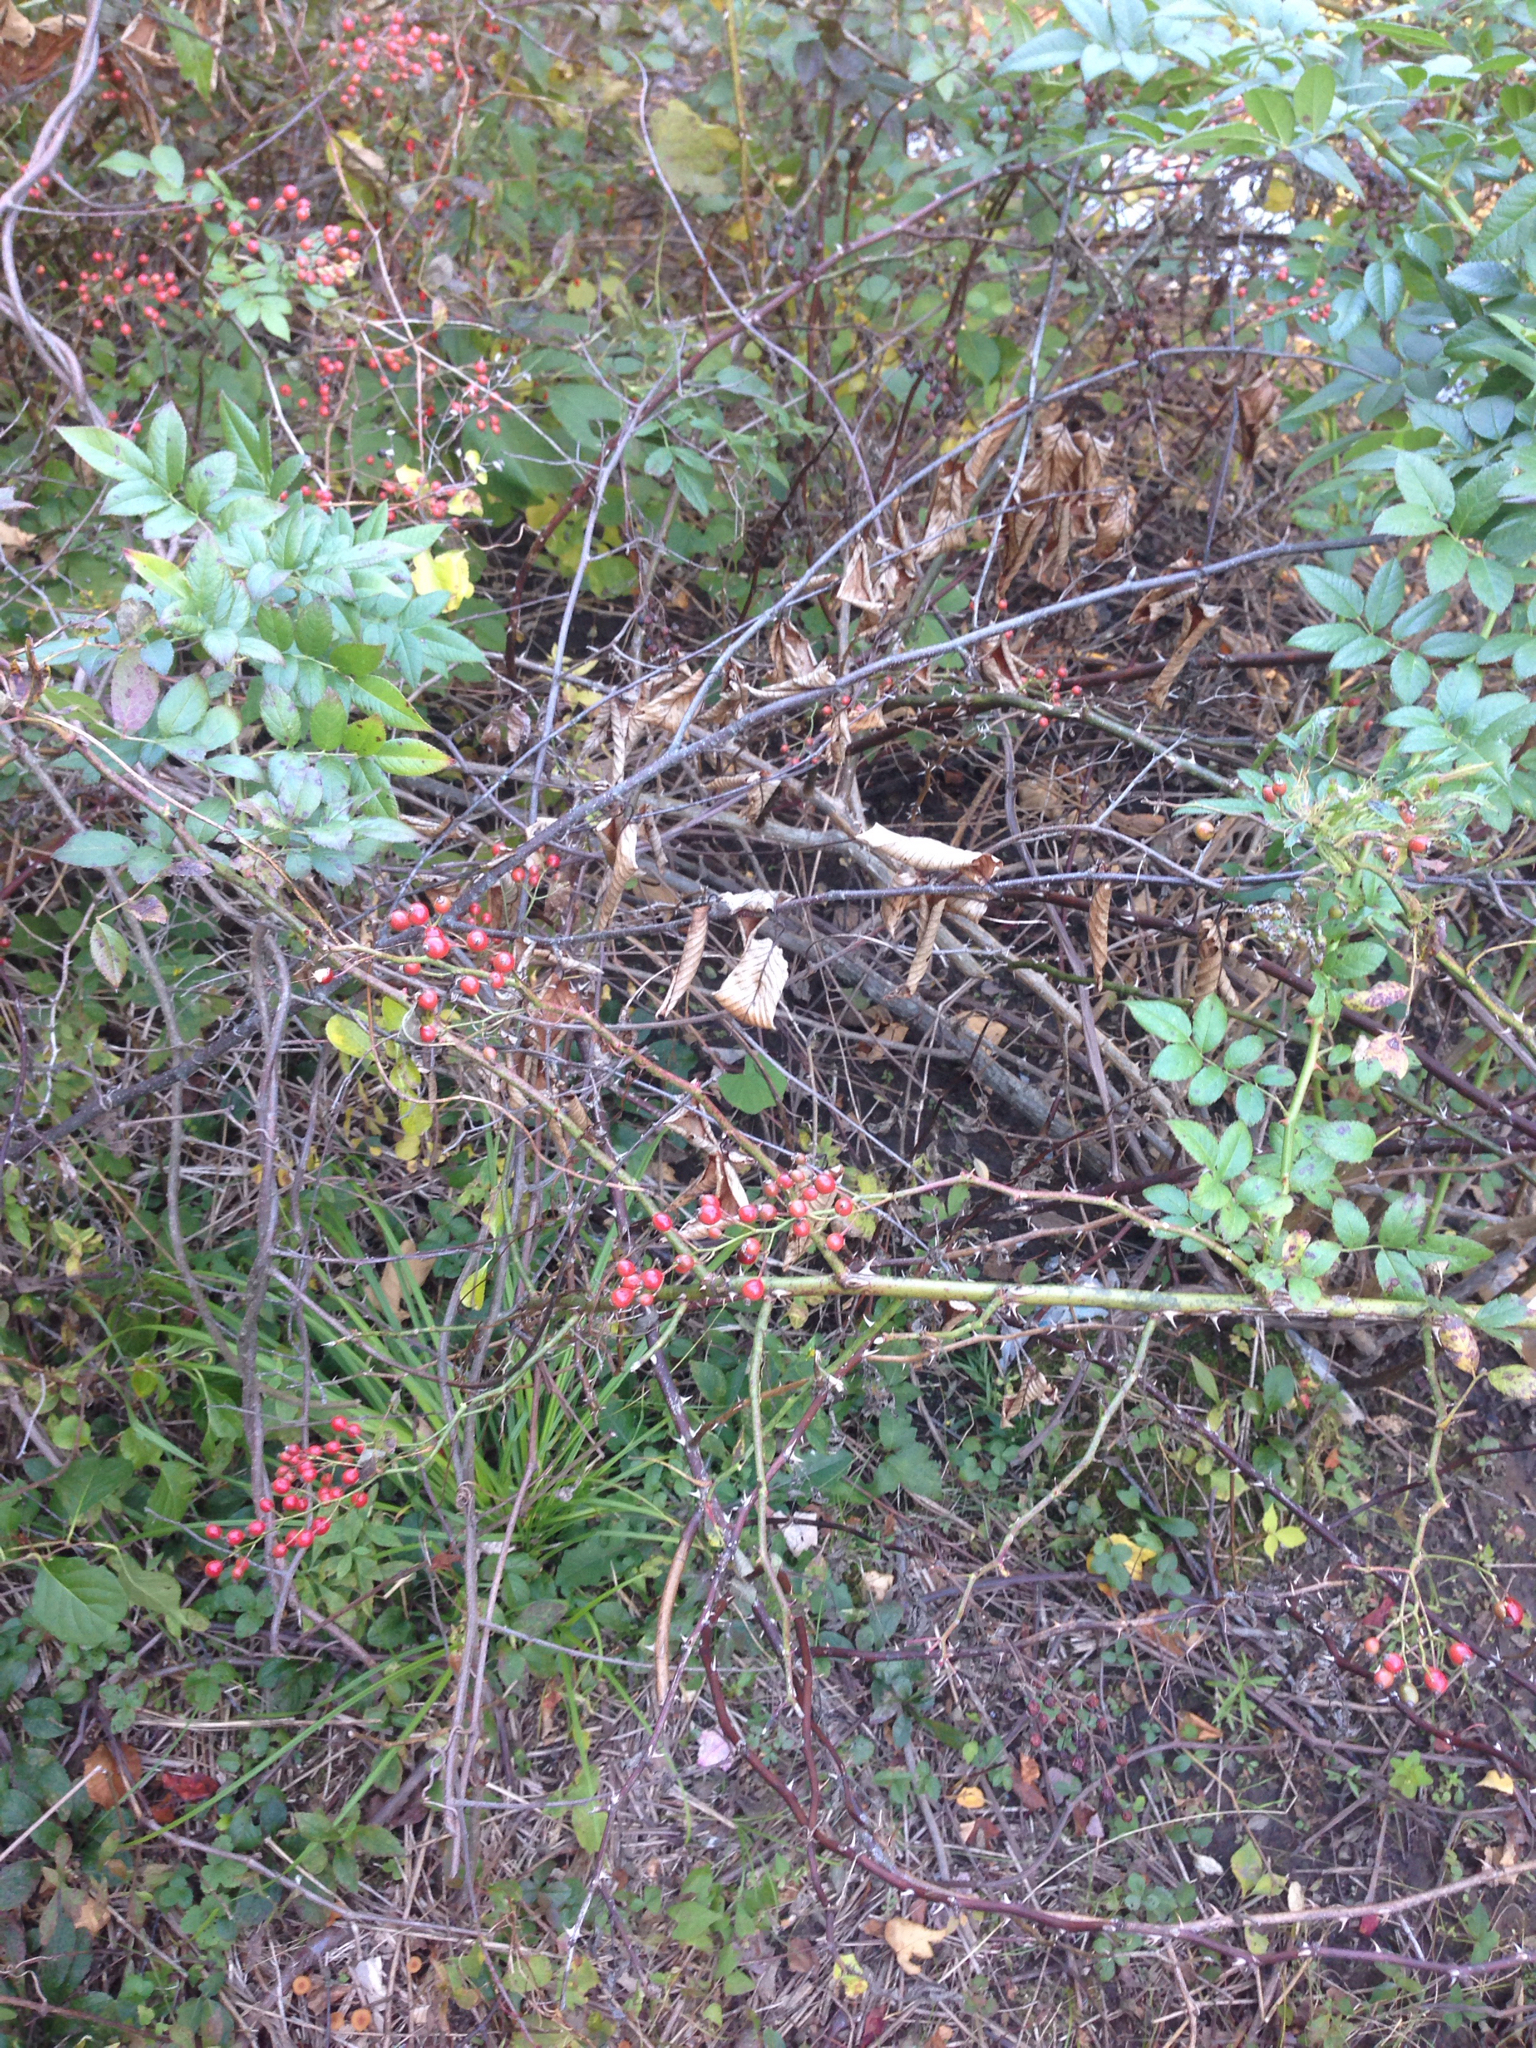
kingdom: Plantae
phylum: Tracheophyta
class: Magnoliopsida
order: Rosales
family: Rosaceae
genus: Rosa
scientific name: Rosa multiflora
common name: Multiflora rose
